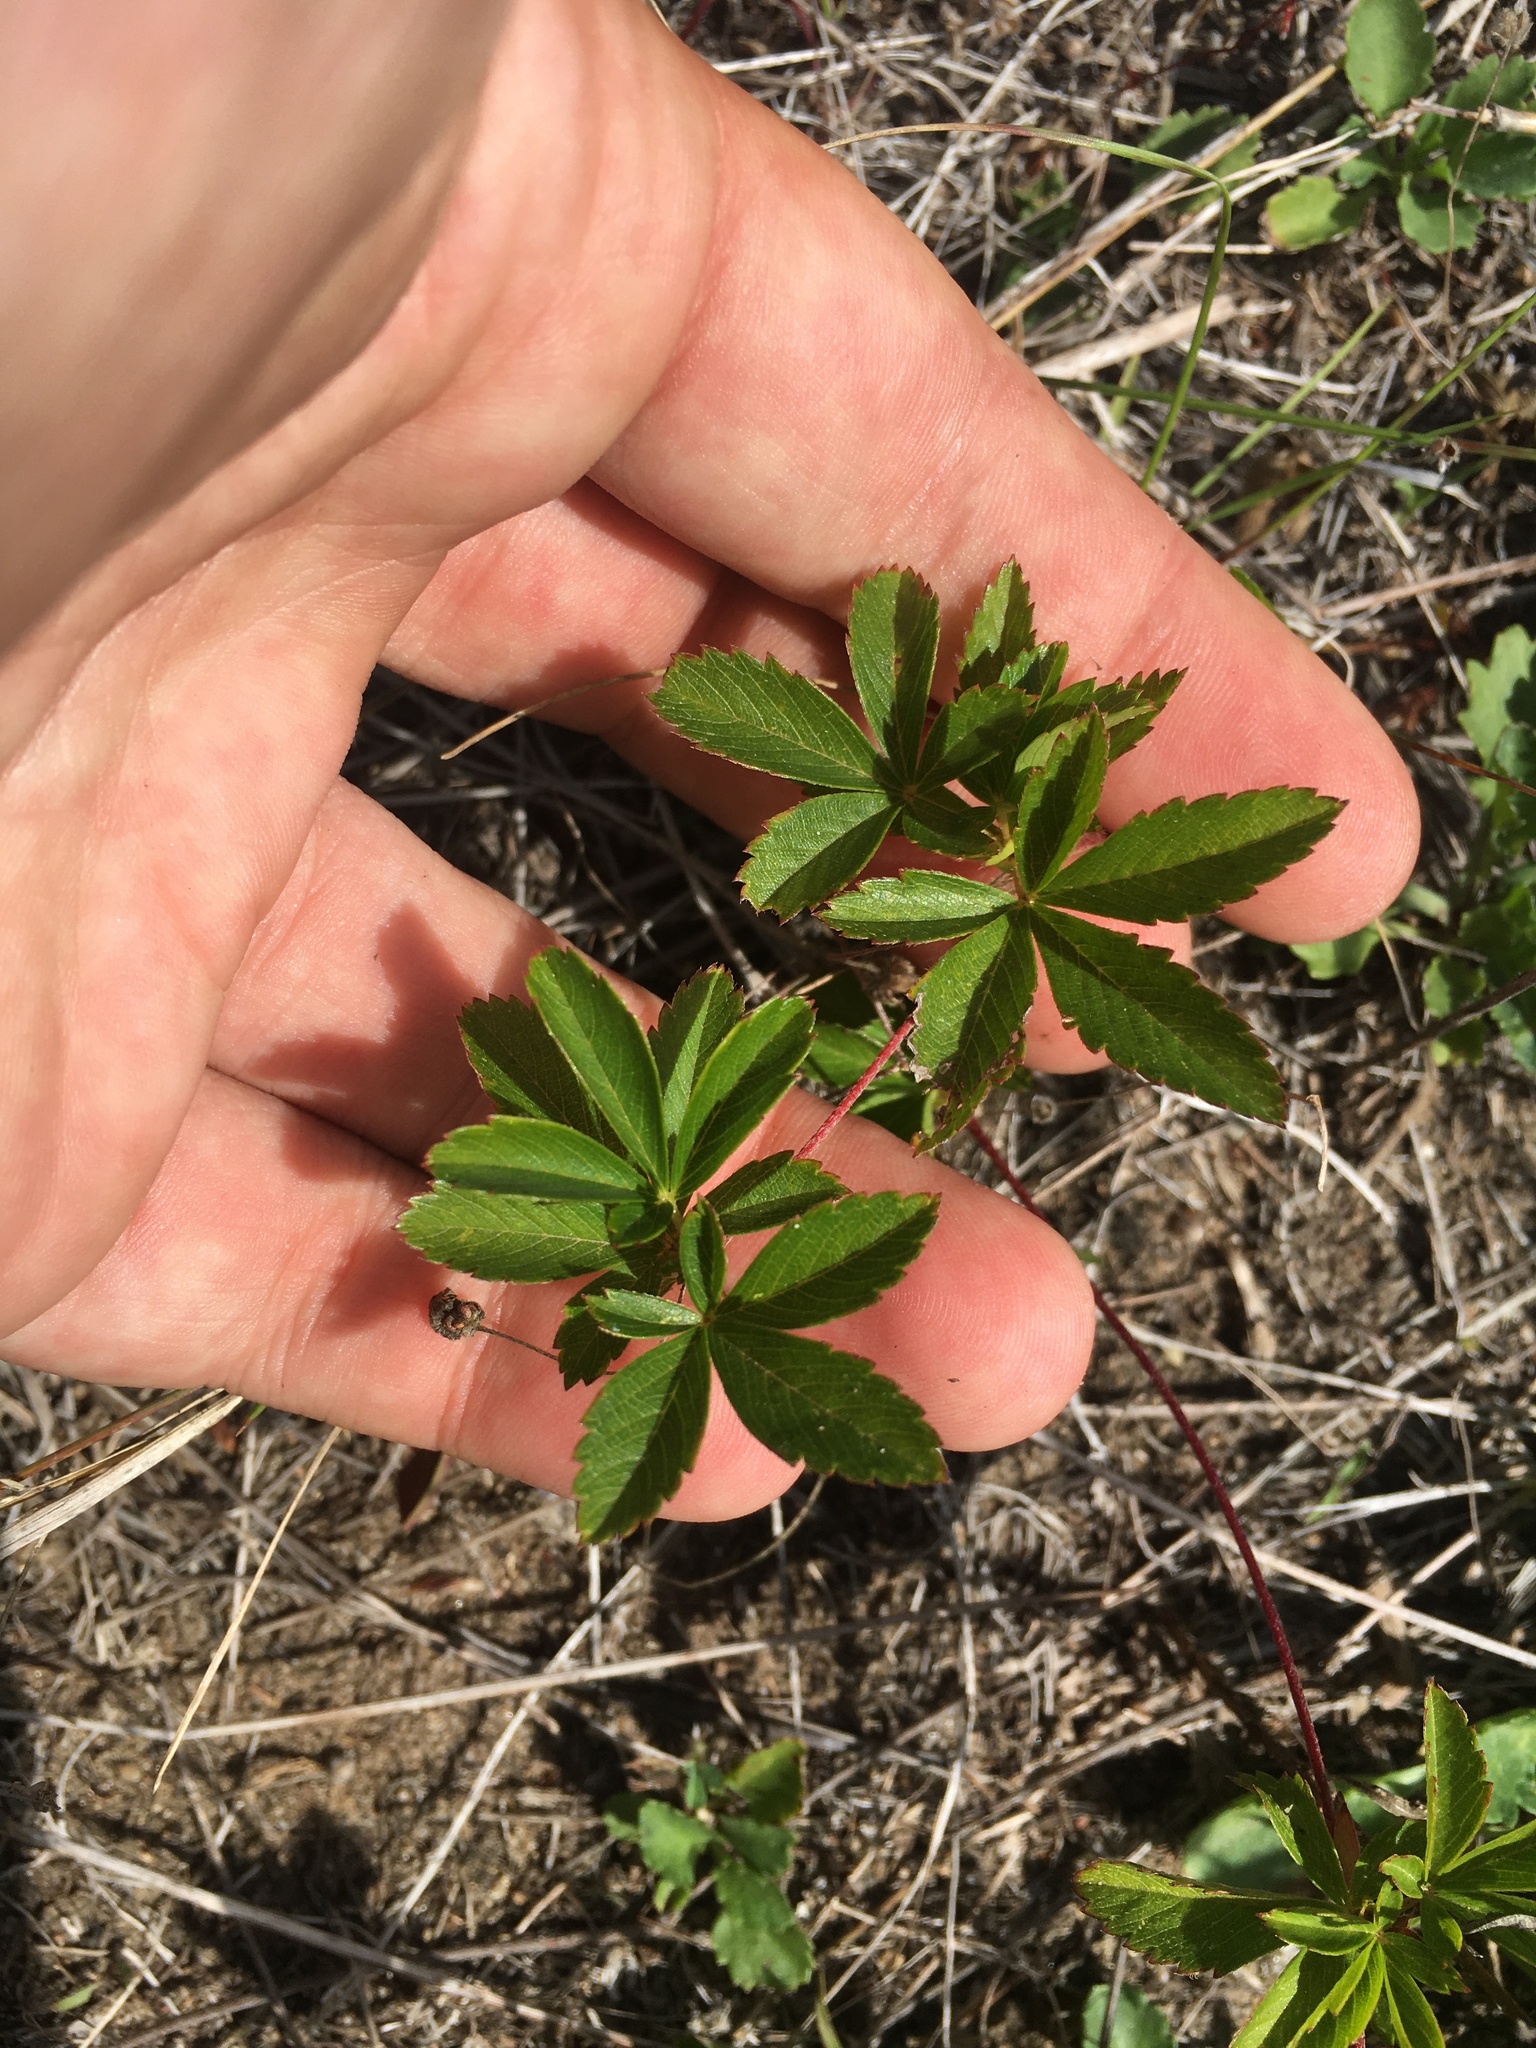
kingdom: Plantae
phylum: Tracheophyta
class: Magnoliopsida
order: Rosales
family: Rosaceae
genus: Potentilla
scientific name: Potentilla simplex
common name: Old field cinquefoil
